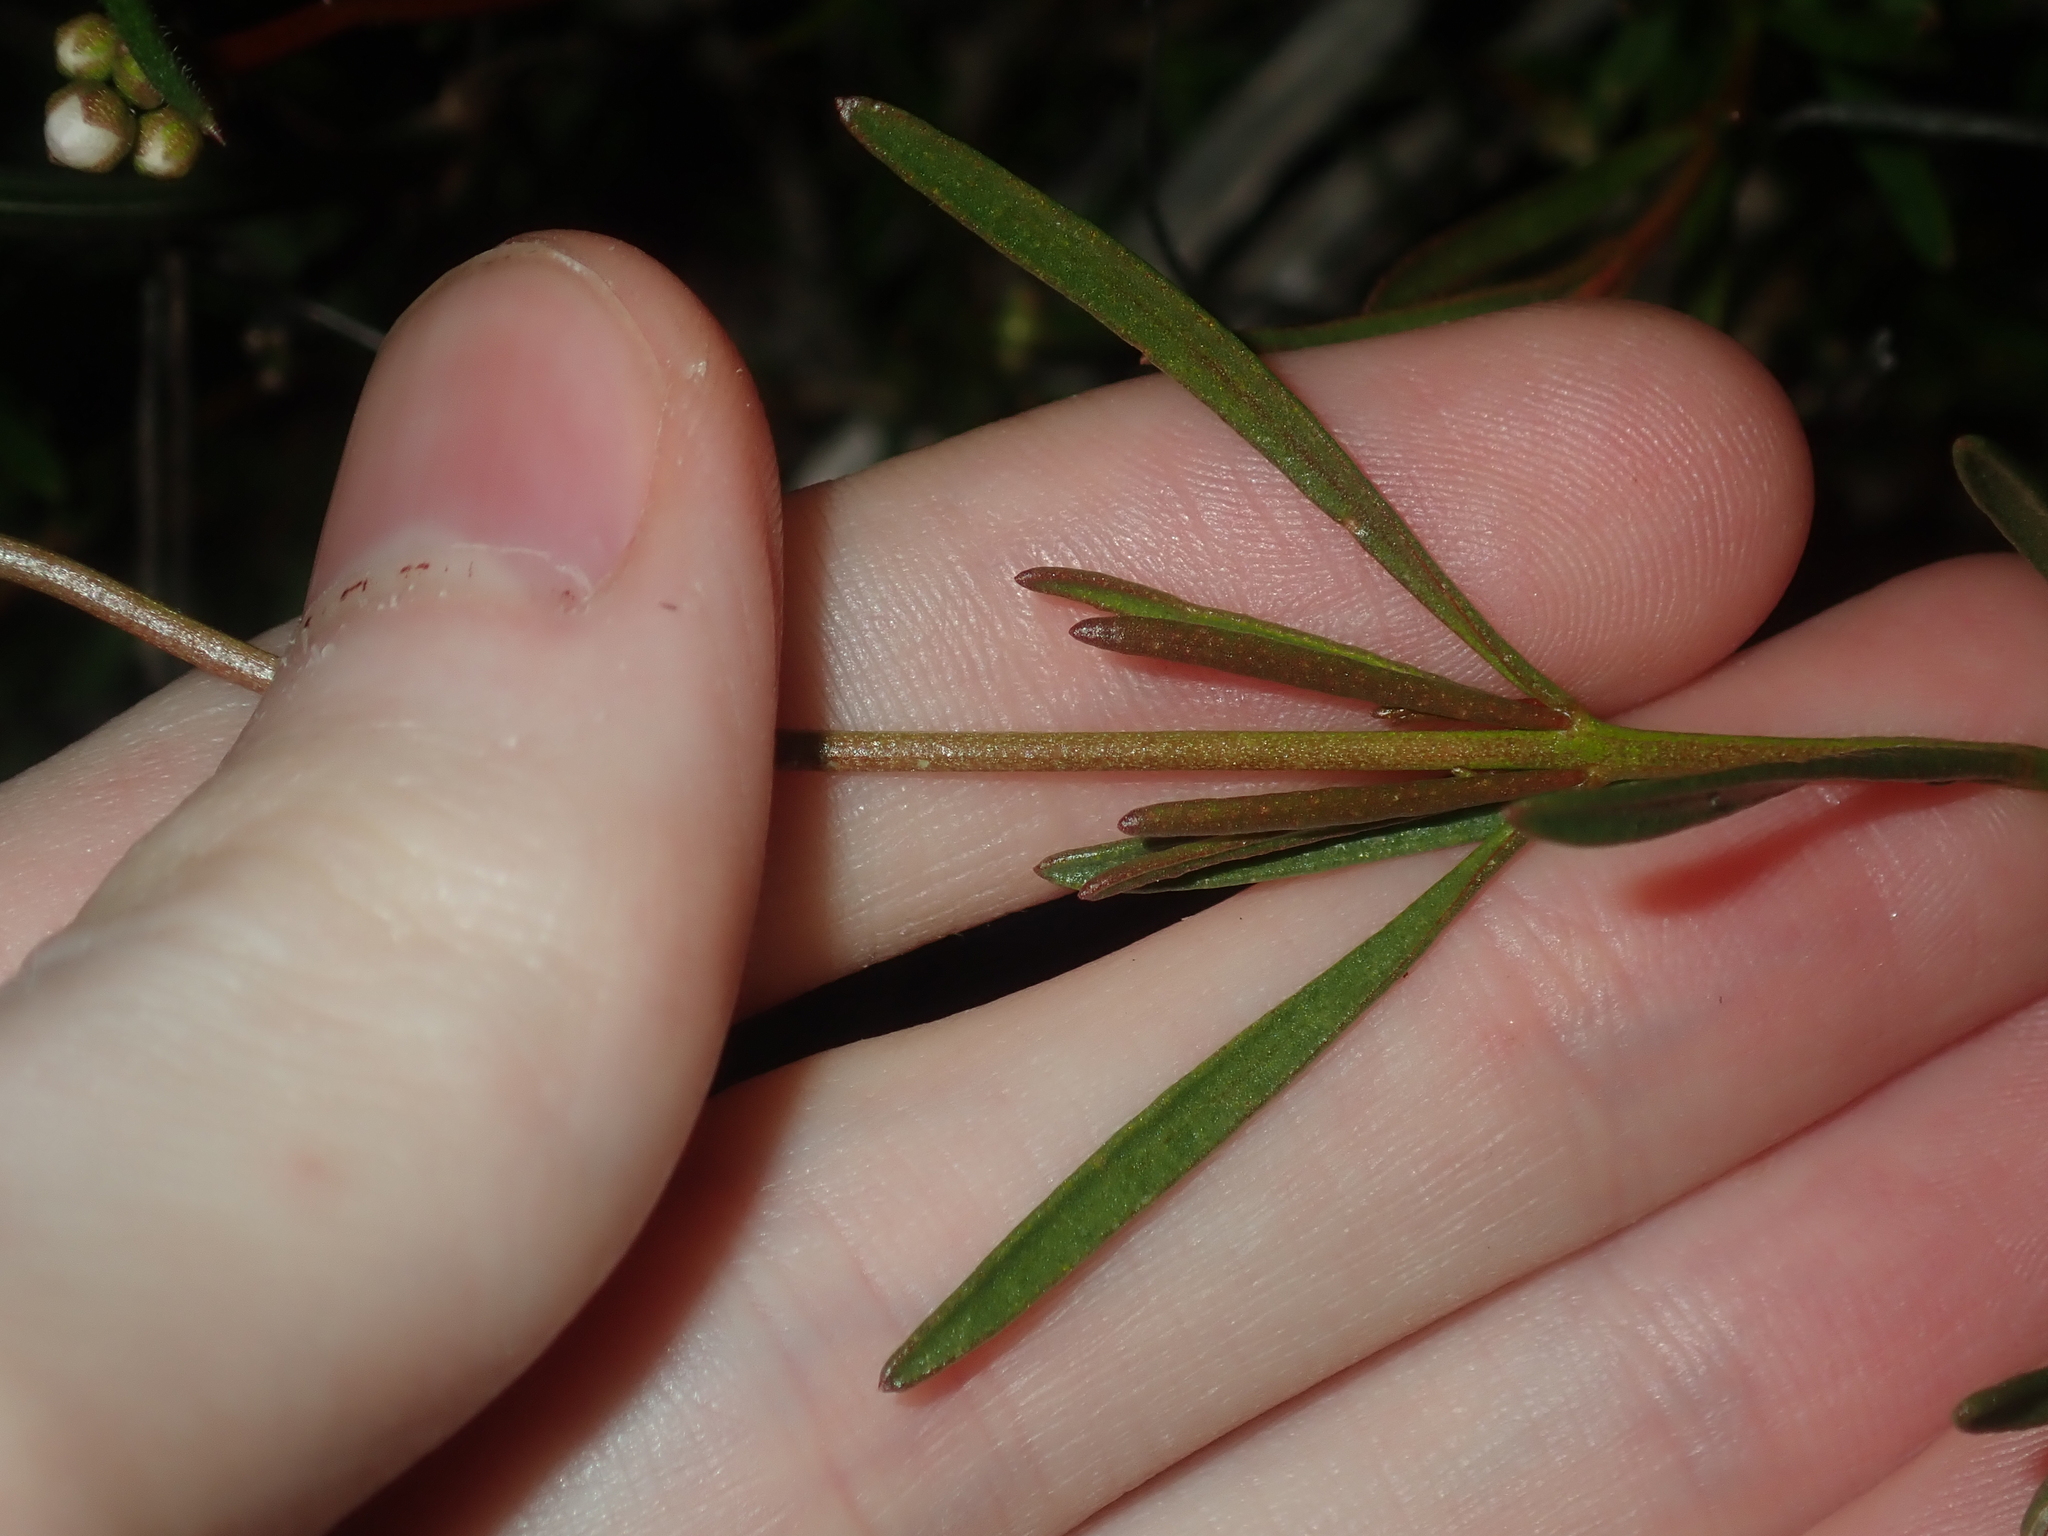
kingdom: Plantae
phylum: Tracheophyta
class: Magnoliopsida
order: Sapindales
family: Rutaceae
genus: Boronia
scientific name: Boronia cymosa
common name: Granite boronia
